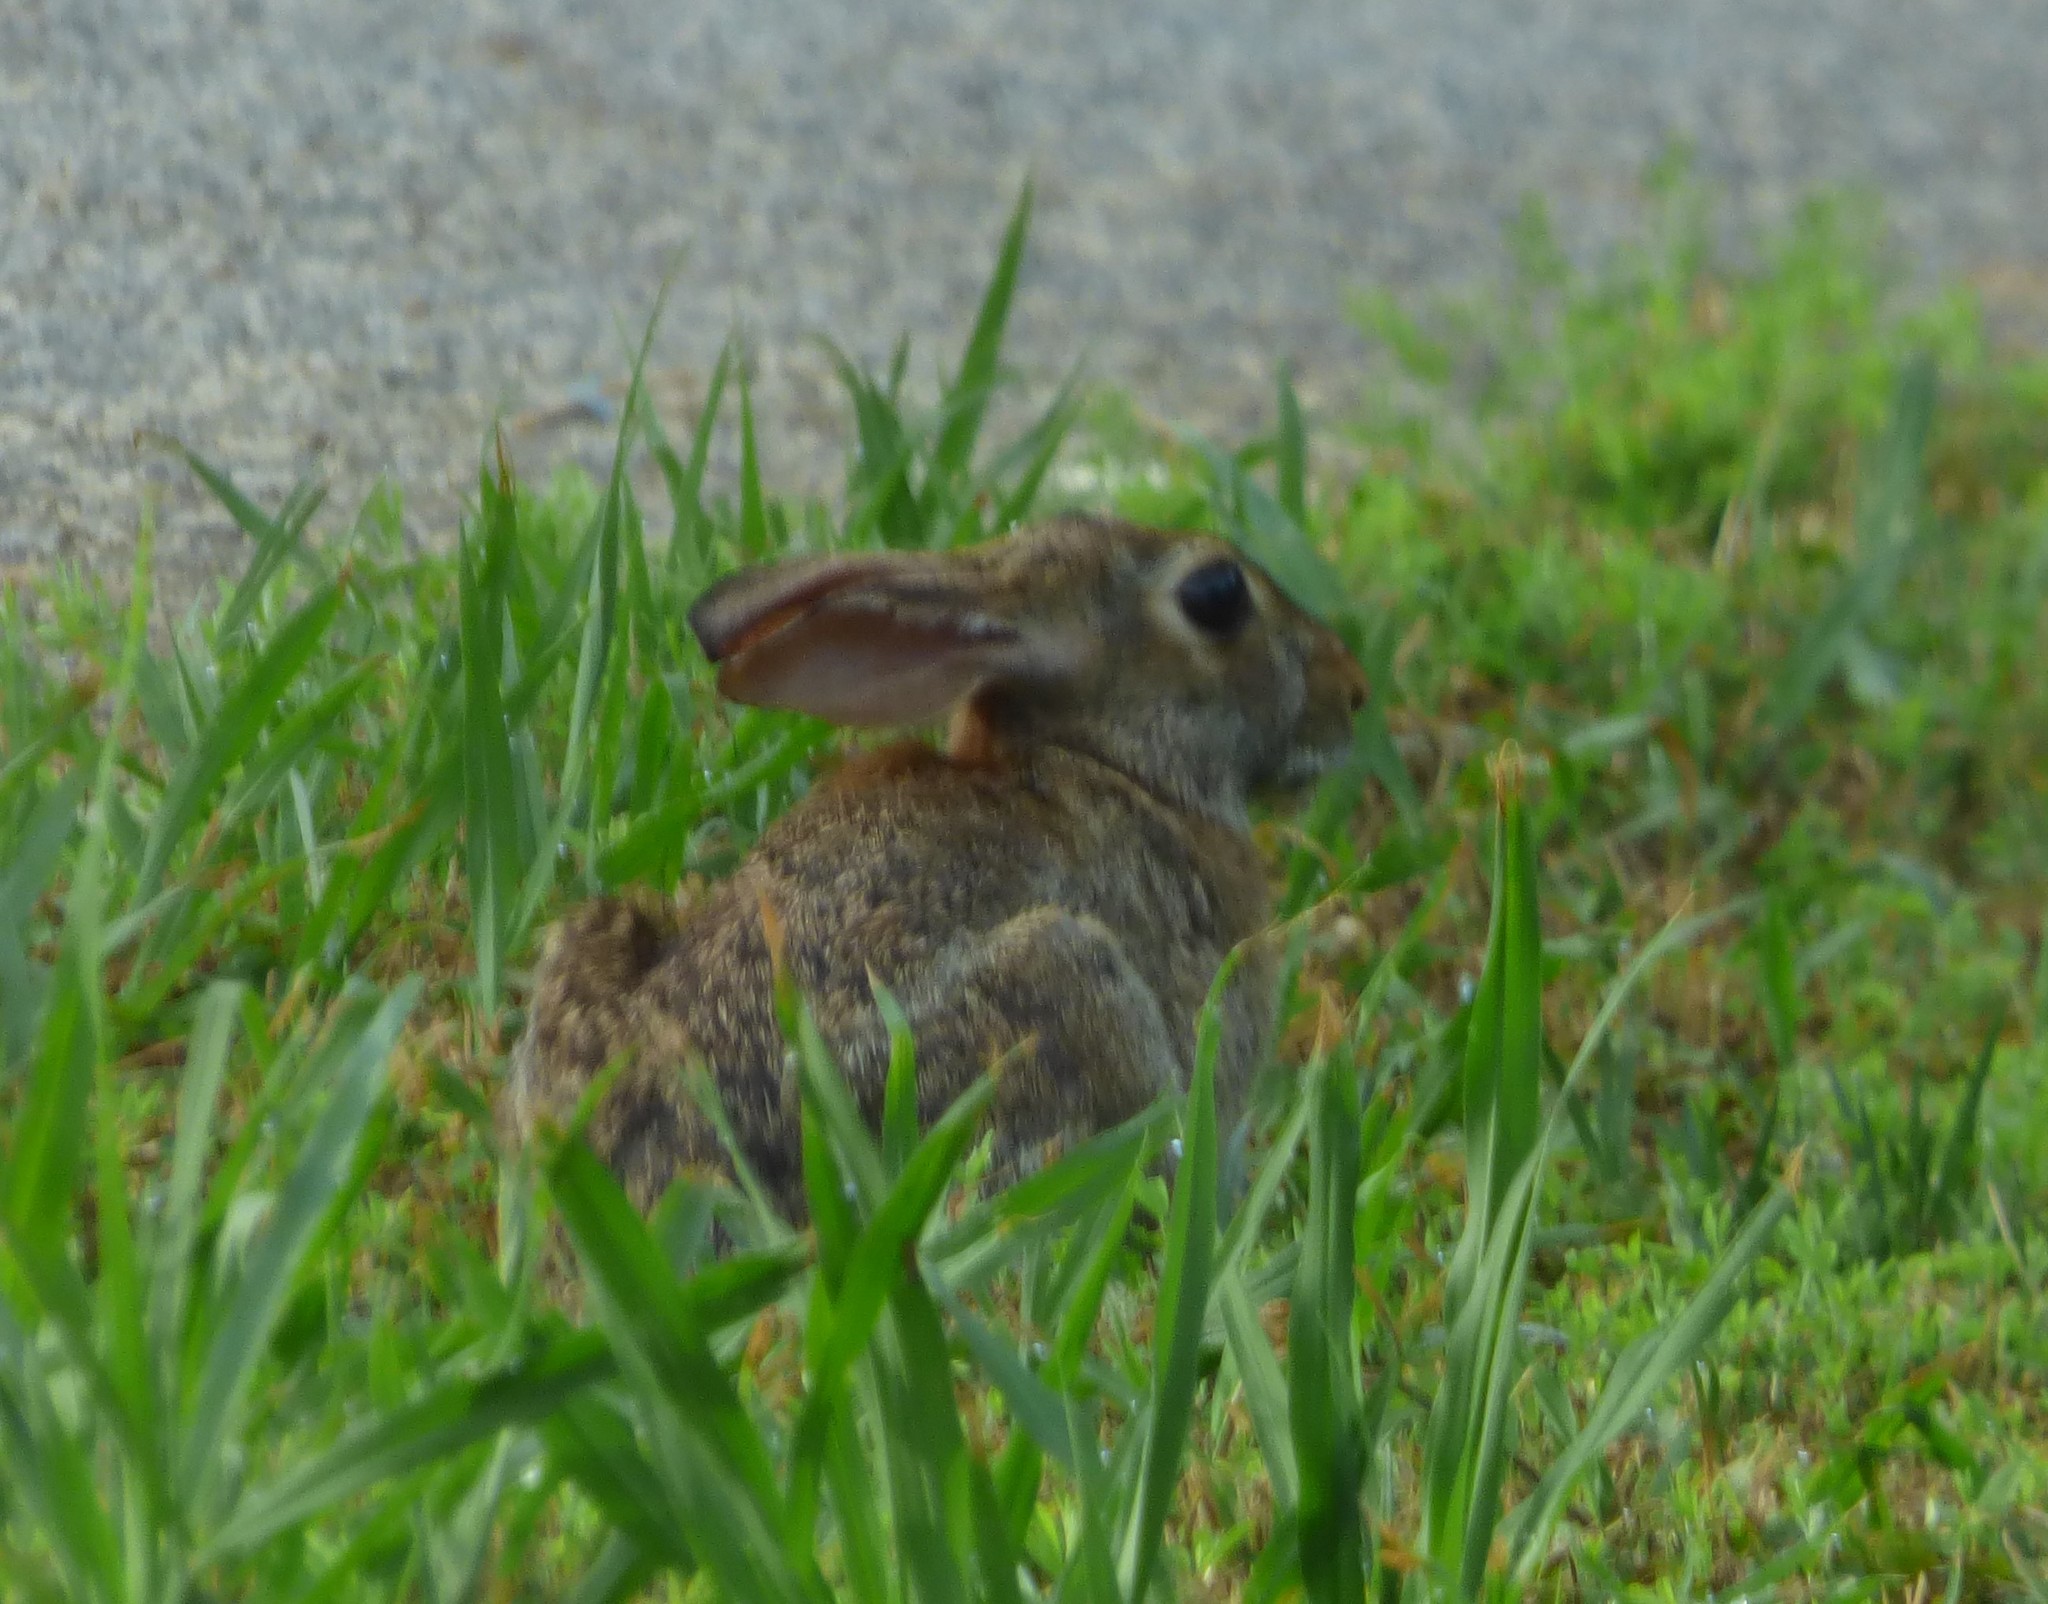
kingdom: Animalia
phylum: Chordata
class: Mammalia
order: Lagomorpha
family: Leporidae
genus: Sylvilagus
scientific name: Sylvilagus floridanus
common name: Eastern cottontail
